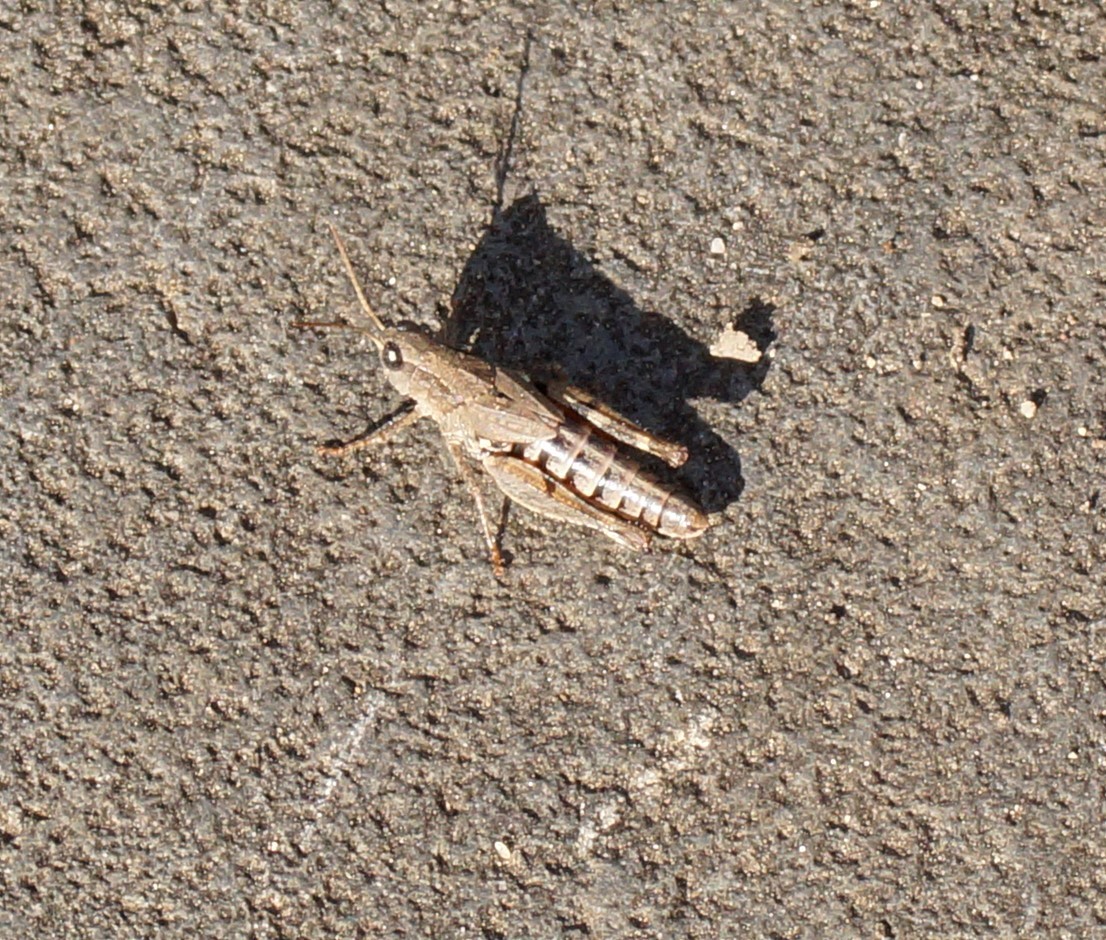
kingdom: Animalia
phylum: Arthropoda
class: Insecta
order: Orthoptera
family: Acrididae
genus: Phaulacridium
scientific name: Phaulacridium vittatum
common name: Wingless grasshopper
